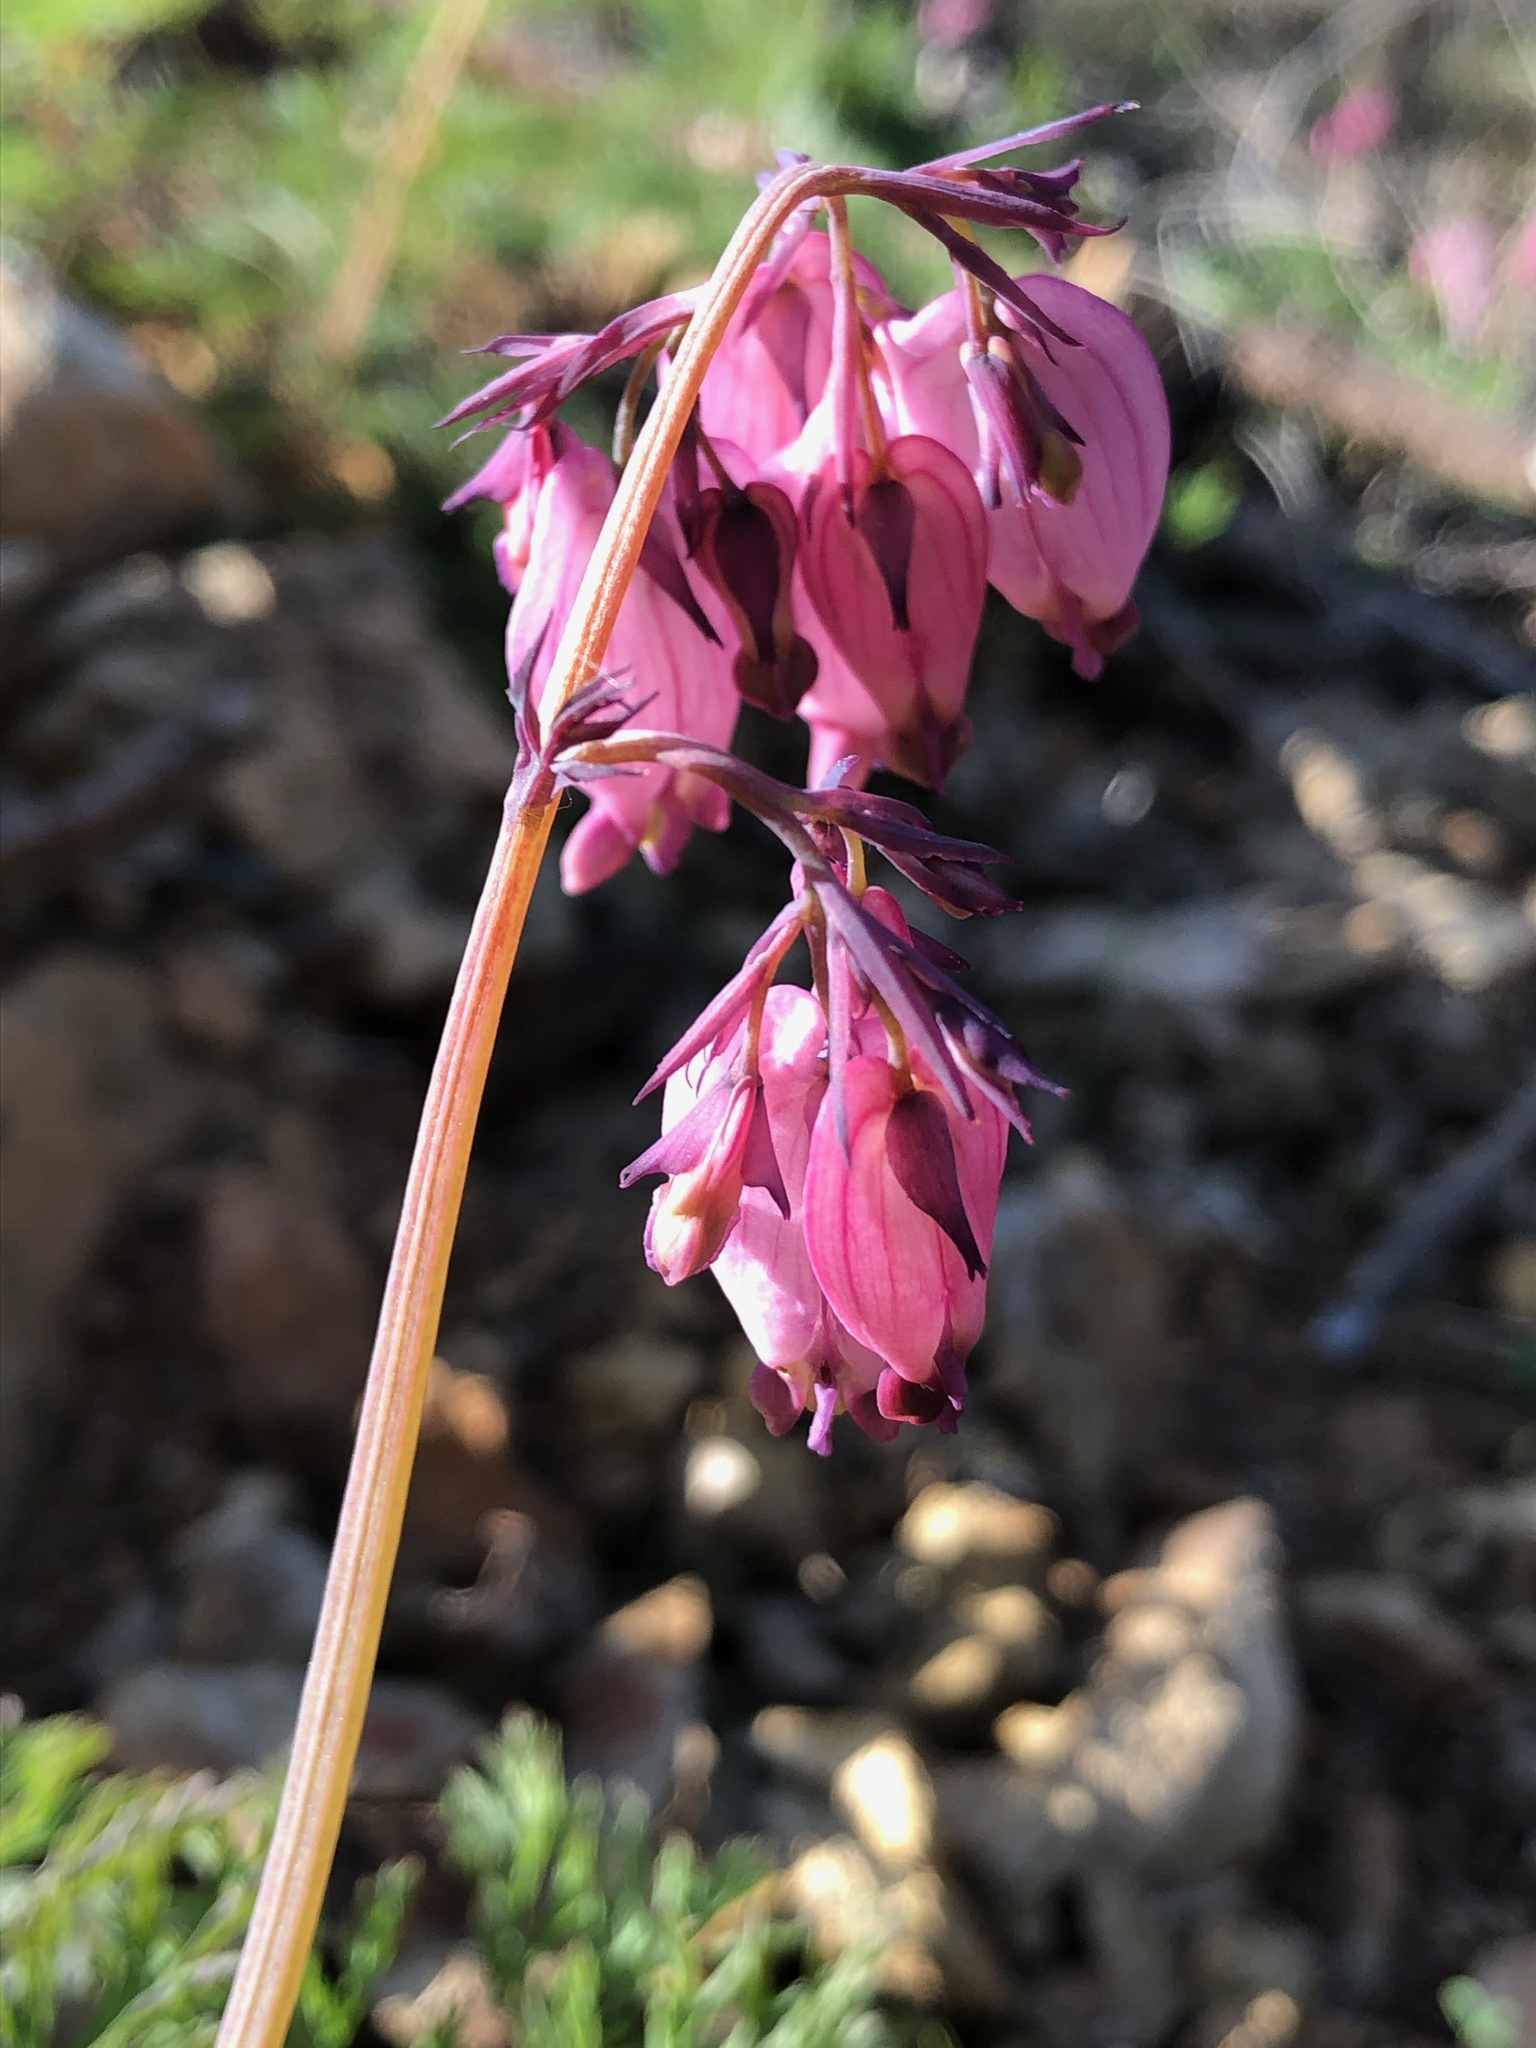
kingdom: Plantae
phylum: Tracheophyta
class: Magnoliopsida
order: Ranunculales
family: Papaveraceae
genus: Dicentra
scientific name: Dicentra formosa
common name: Bleeding-heart
